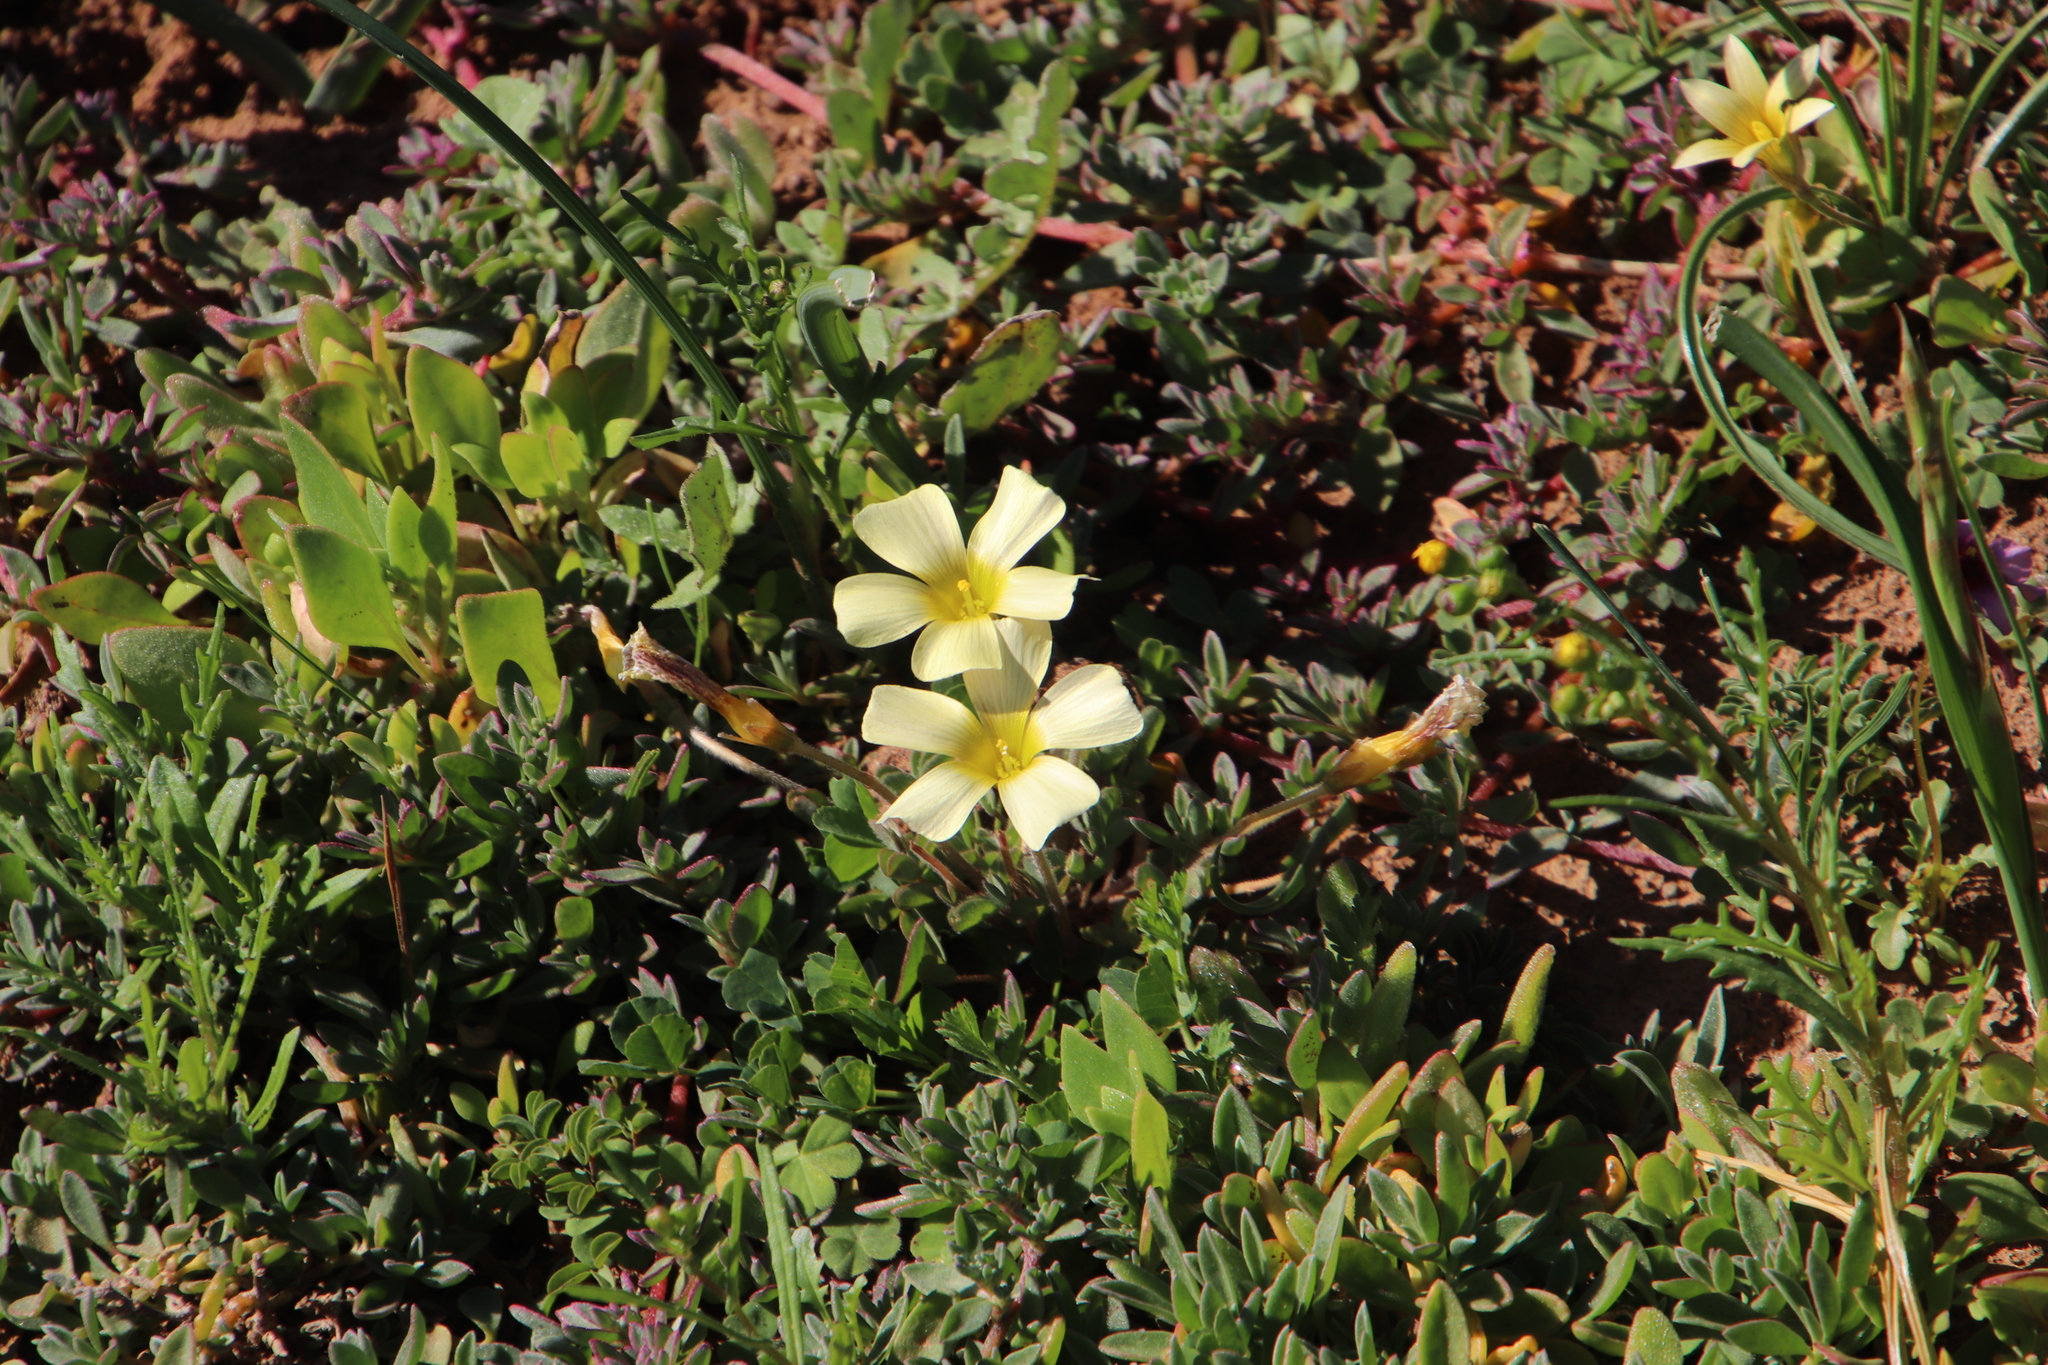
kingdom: Plantae
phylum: Tracheophyta
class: Magnoliopsida
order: Oxalidales
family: Oxalidaceae
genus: Oxalis
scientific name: Oxalis obtusa
